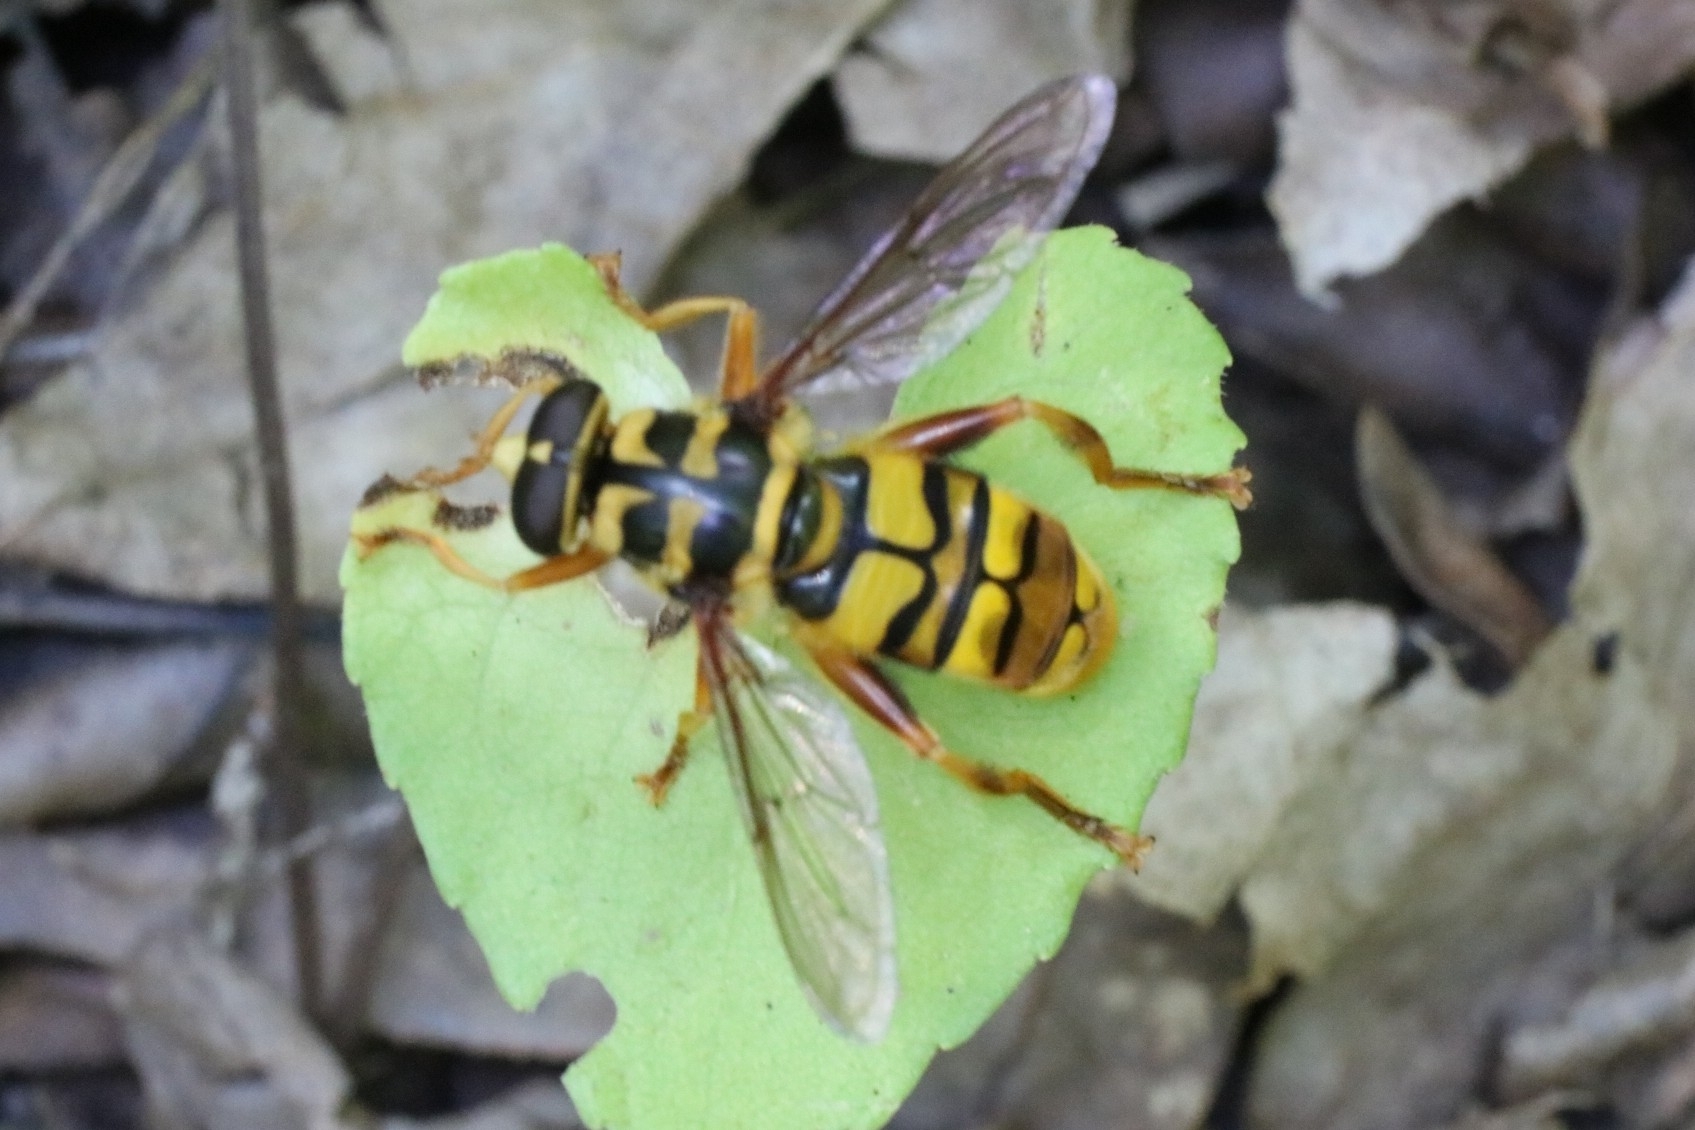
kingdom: Animalia
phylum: Arthropoda
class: Insecta
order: Diptera
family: Syrphidae
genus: Milesia
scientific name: Milesia virginiensis
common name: Virginia giant
